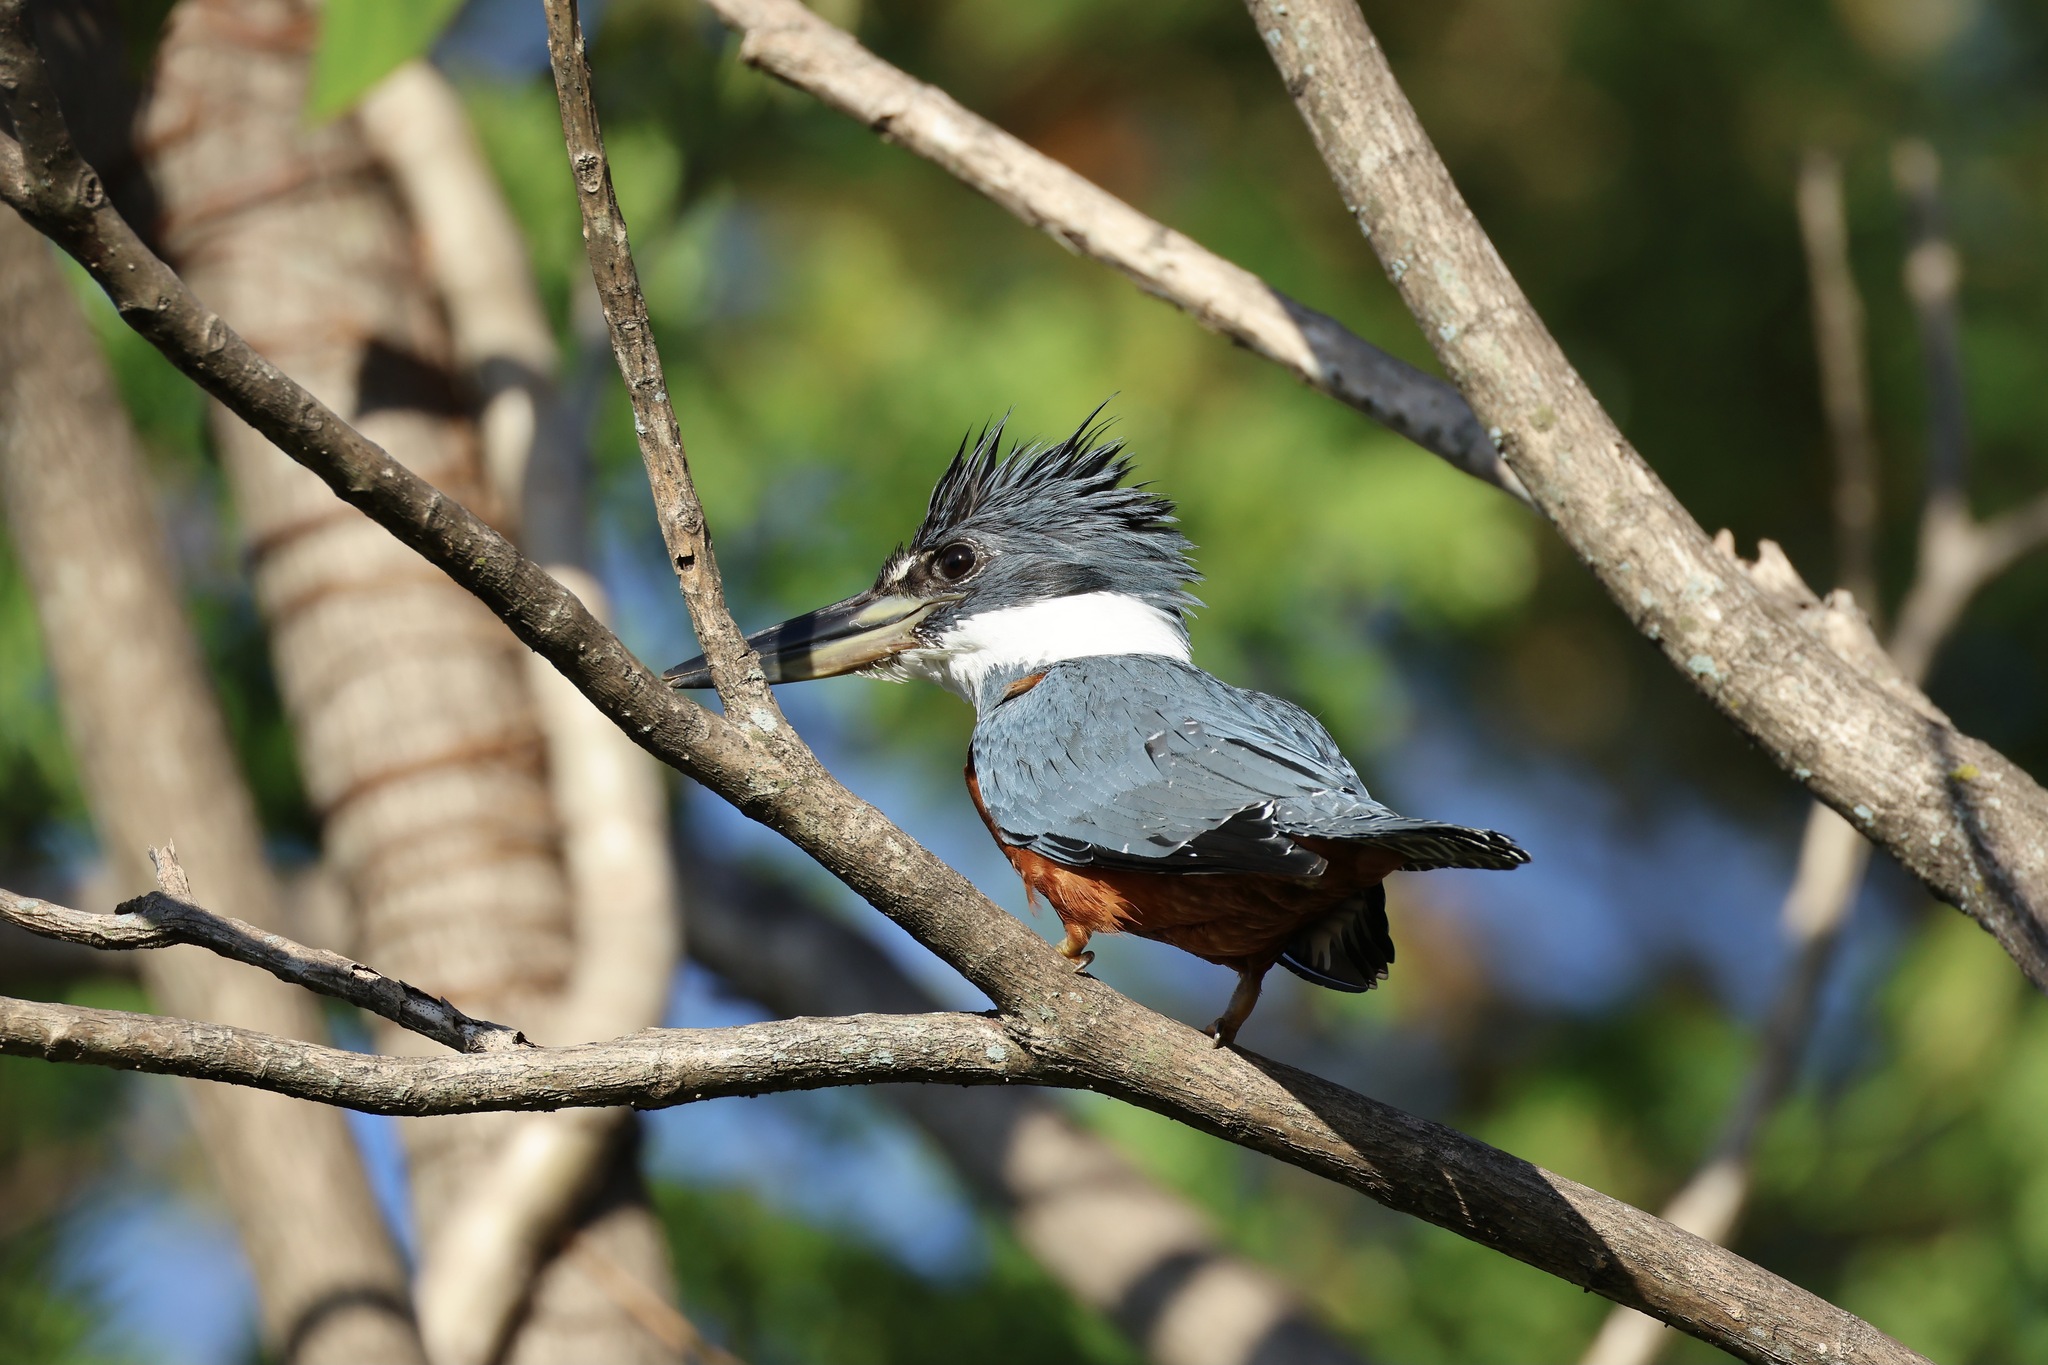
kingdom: Animalia
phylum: Chordata
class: Aves
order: Coraciiformes
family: Alcedinidae
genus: Megaceryle
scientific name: Megaceryle torquata
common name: Ringed kingfisher
